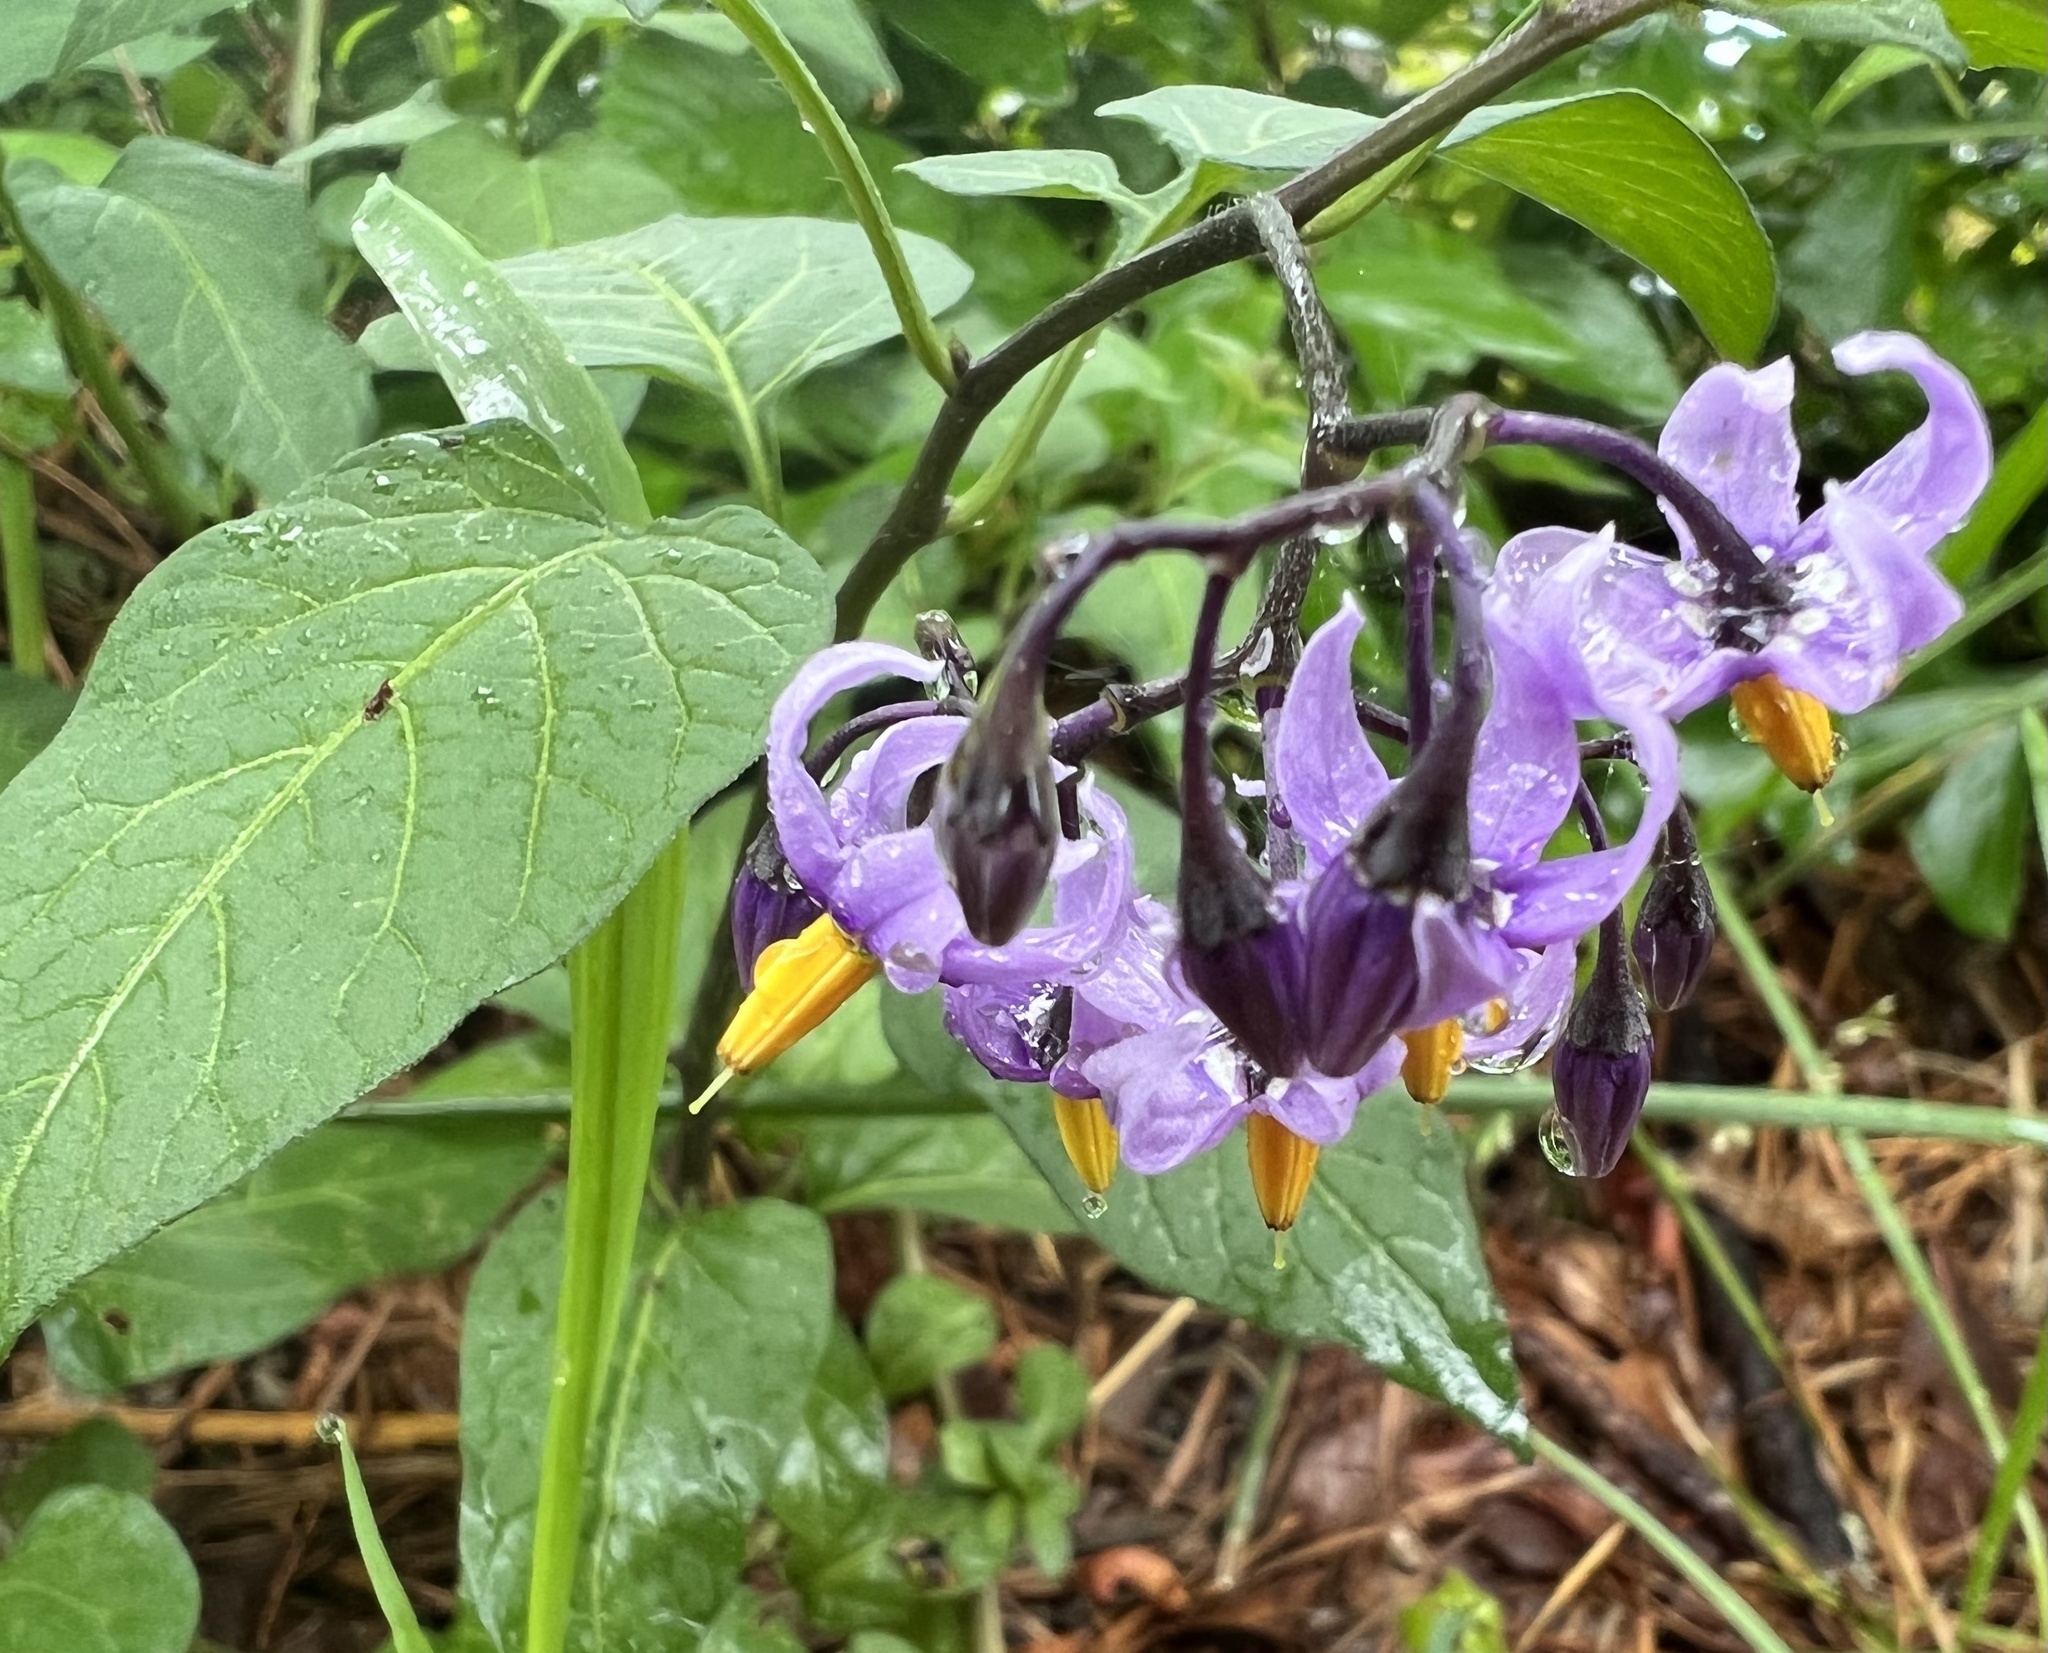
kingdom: Plantae
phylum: Tracheophyta
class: Magnoliopsida
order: Solanales
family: Solanaceae
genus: Solanum
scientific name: Solanum dulcamara
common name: Climbing nightshade
